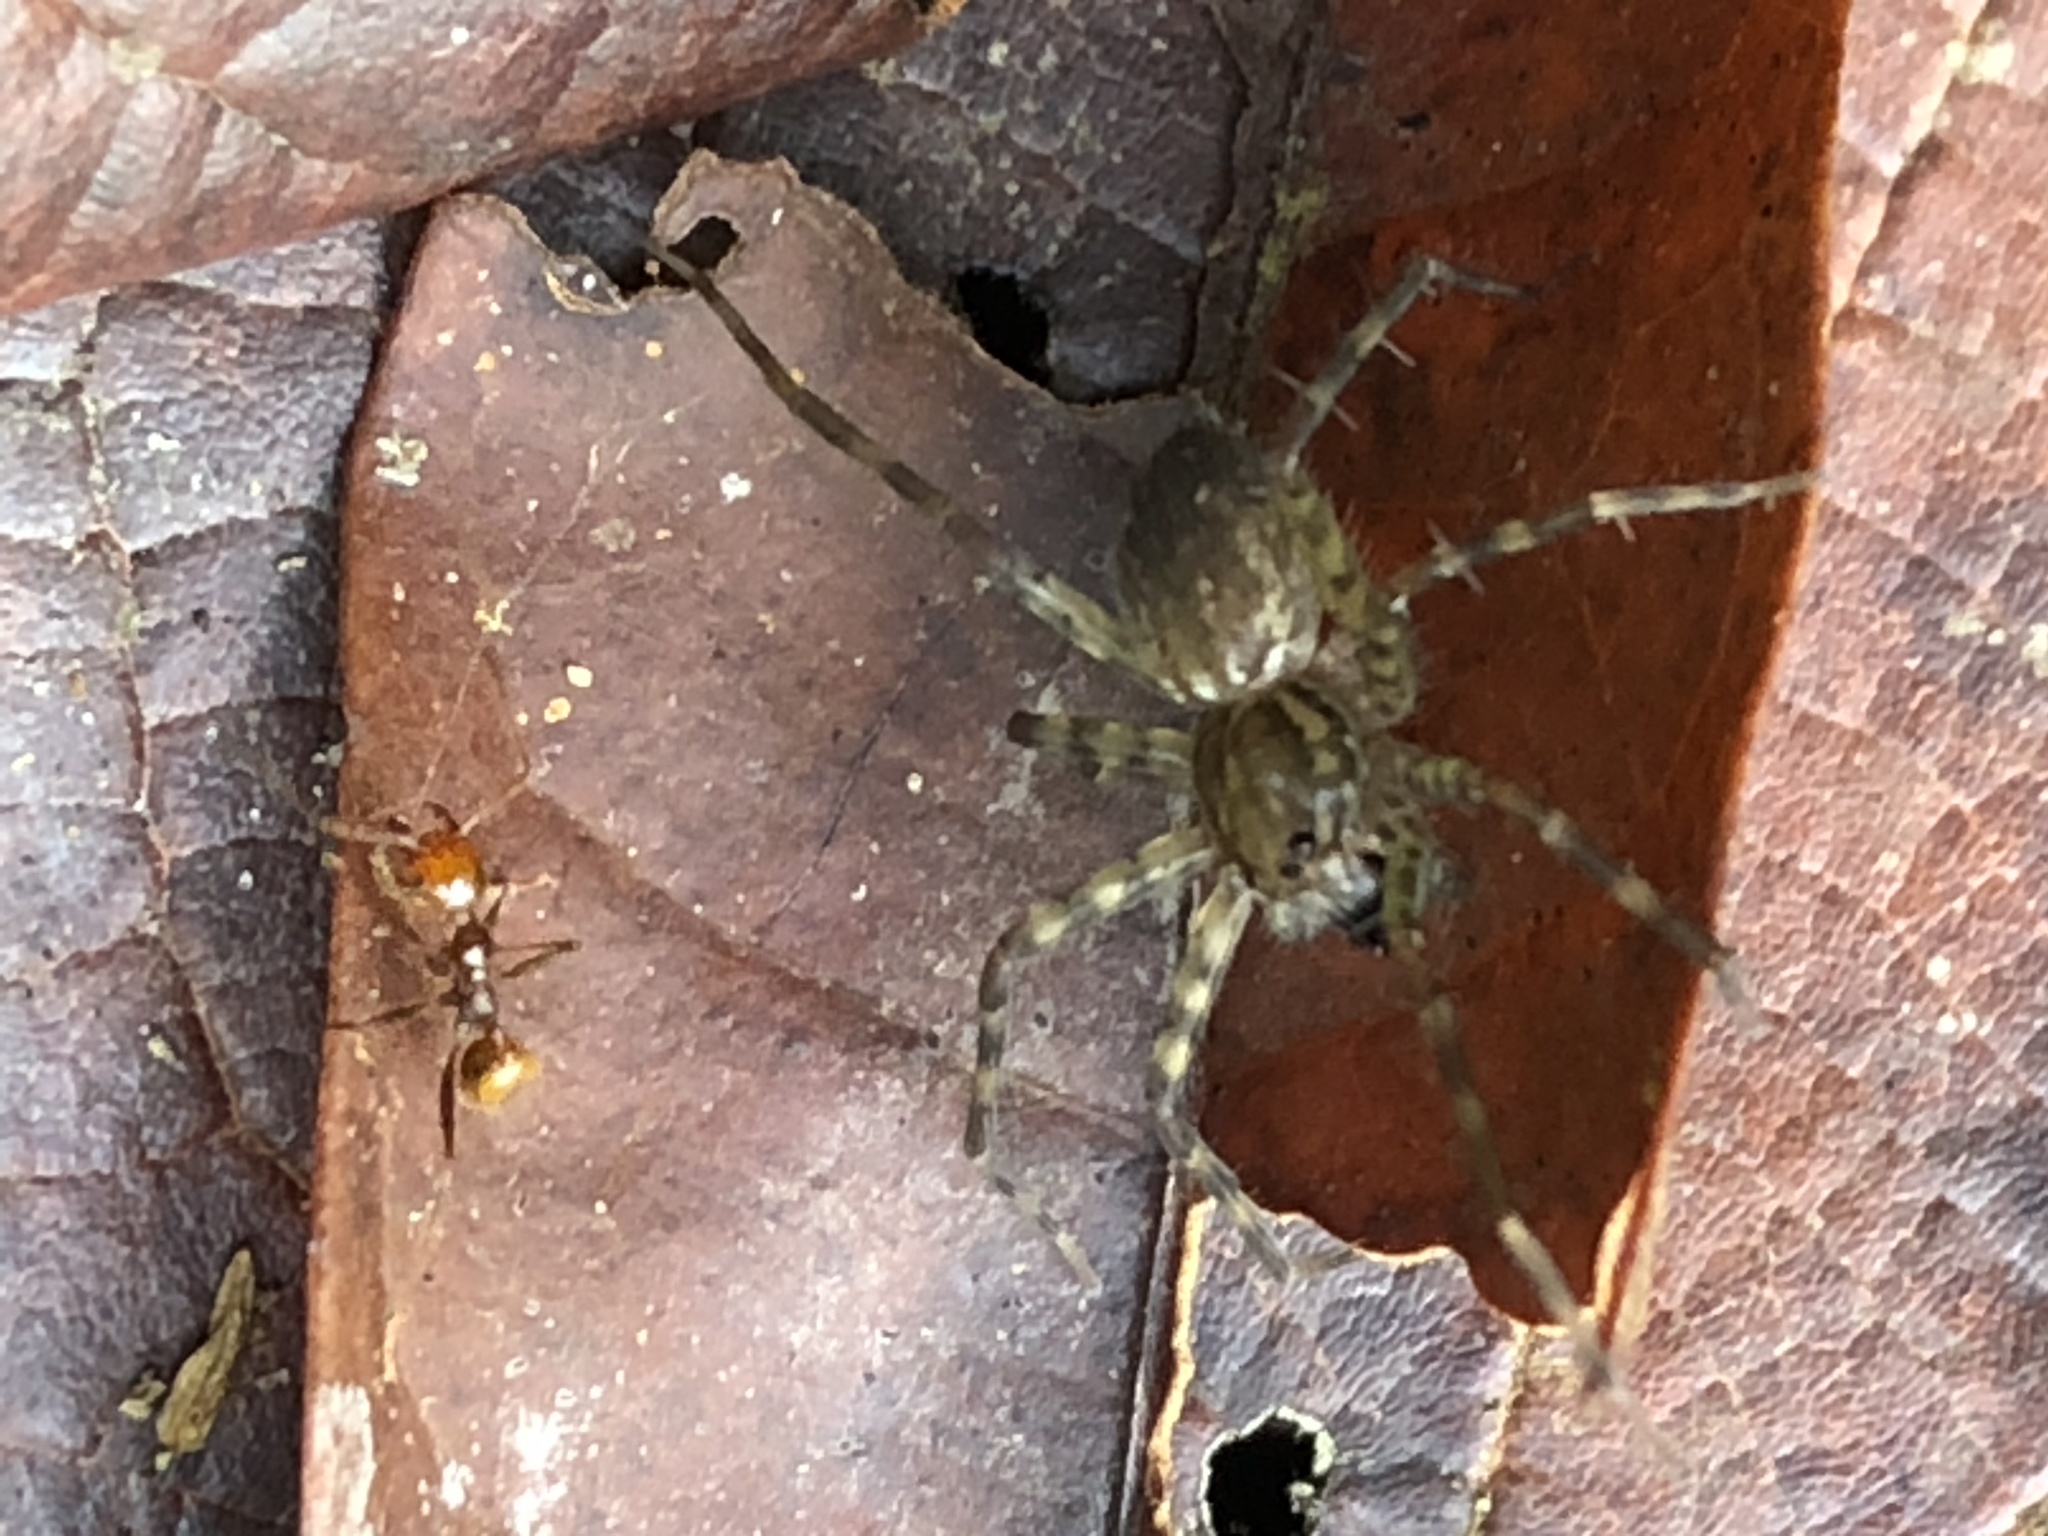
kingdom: Animalia
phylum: Arthropoda
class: Insecta
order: Hymenoptera
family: Formicidae
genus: Pheidole
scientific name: Pheidole xanthogaster
